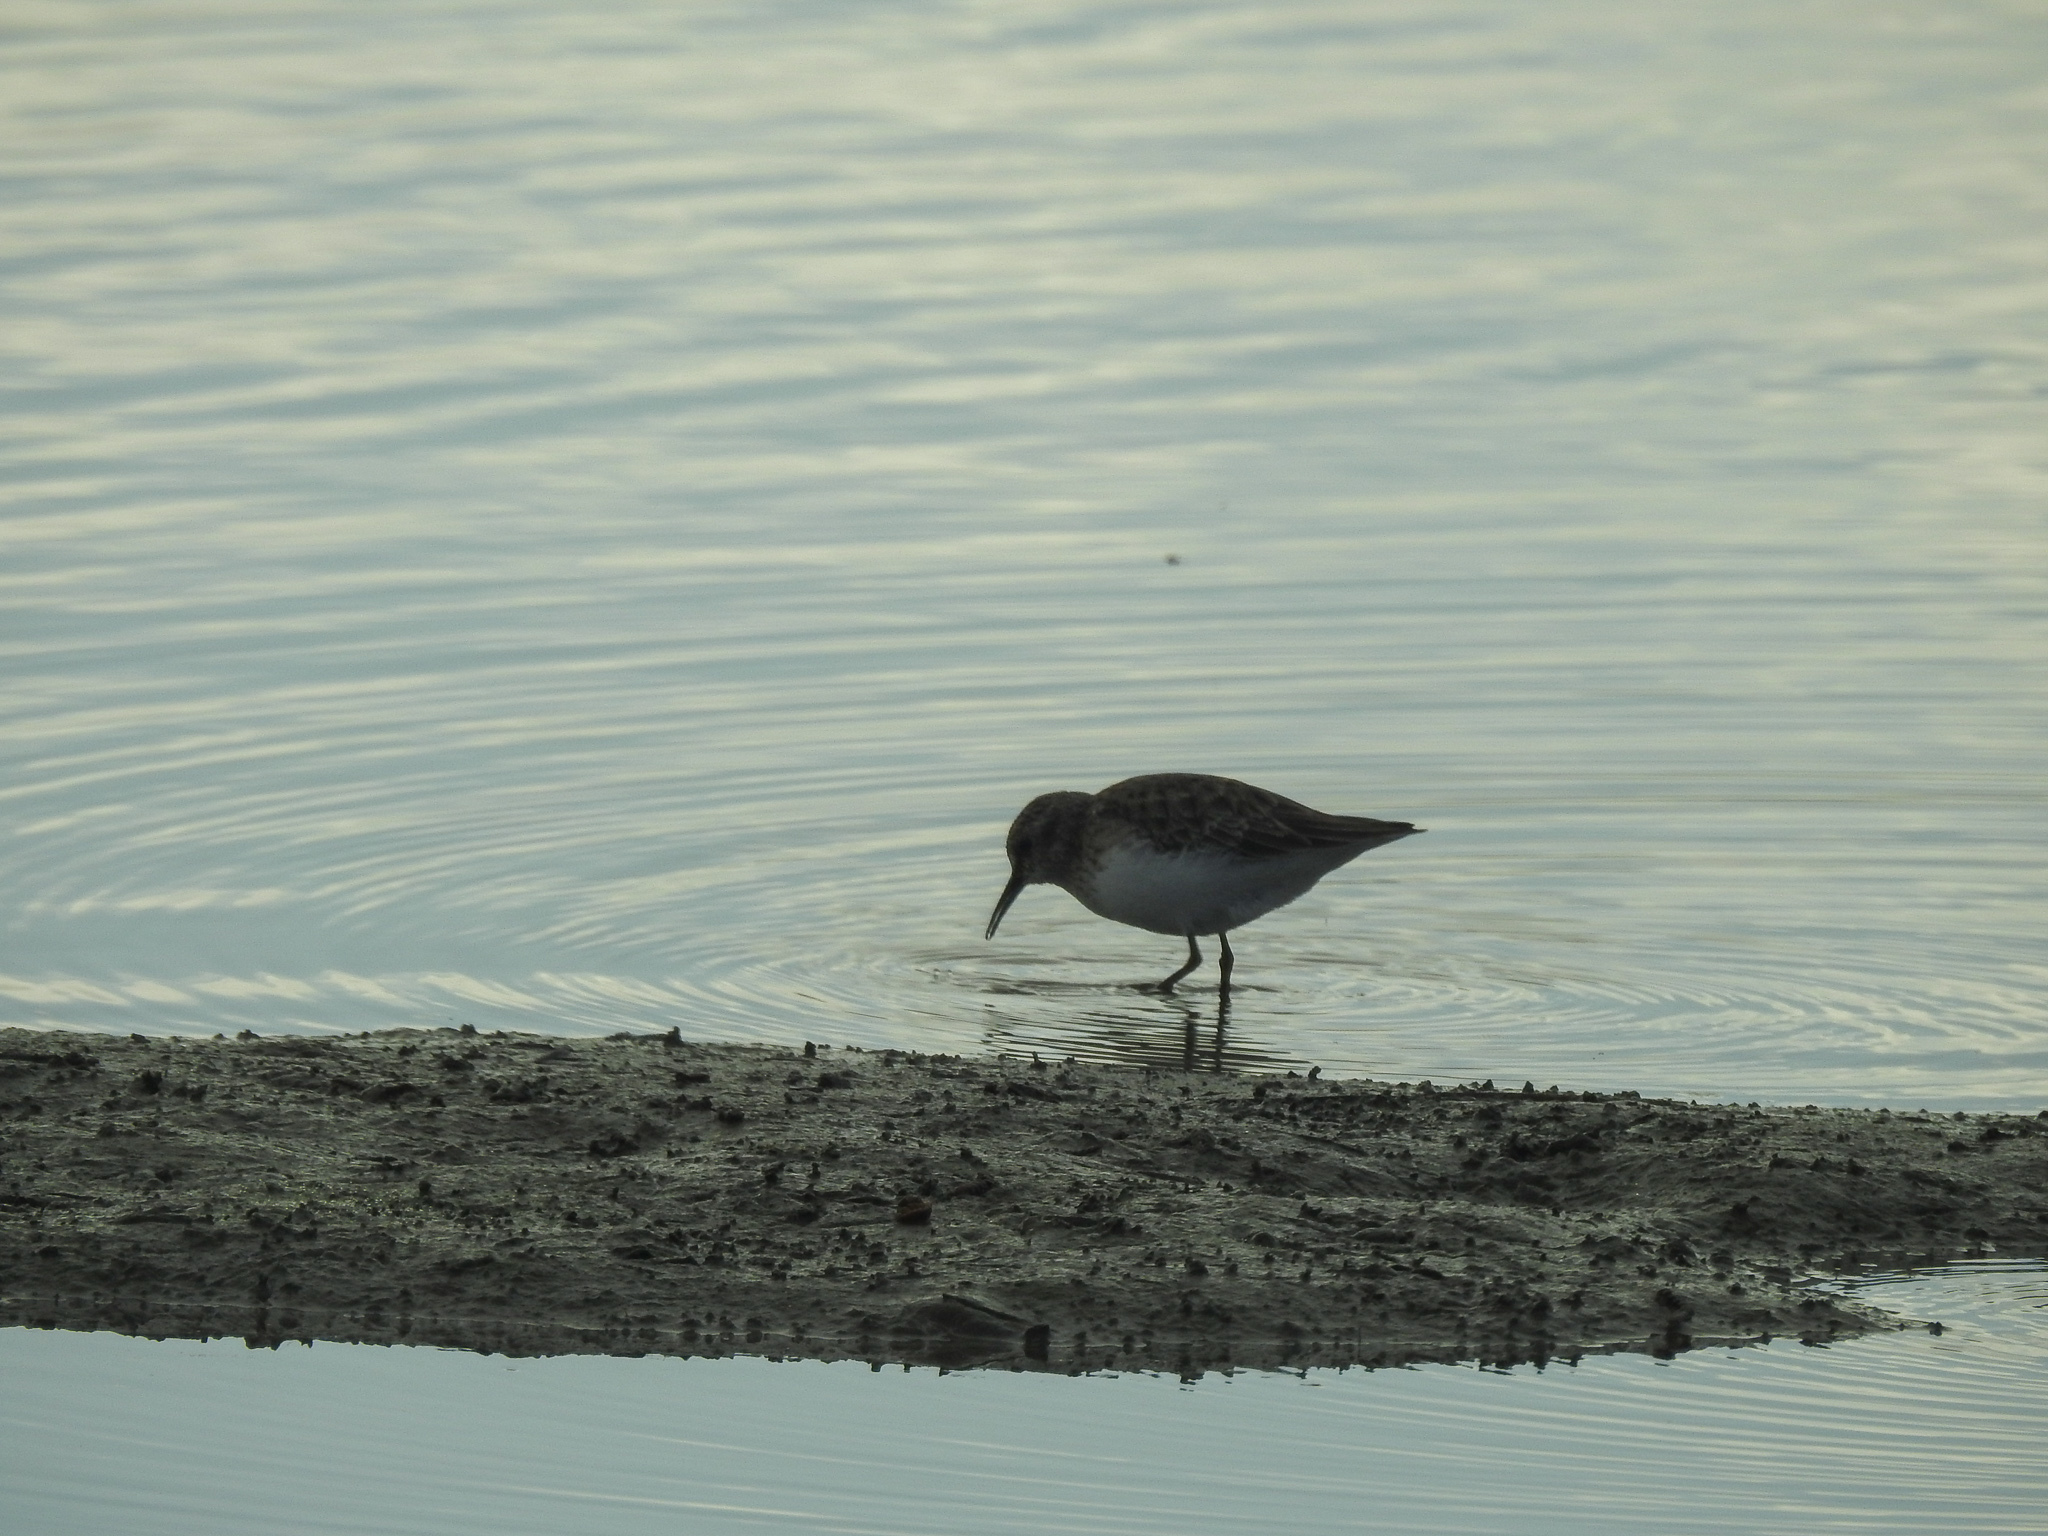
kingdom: Animalia
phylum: Chordata
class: Aves
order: Charadriiformes
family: Scolopacidae
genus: Calidris
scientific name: Calidris minutilla
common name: Least sandpiper
